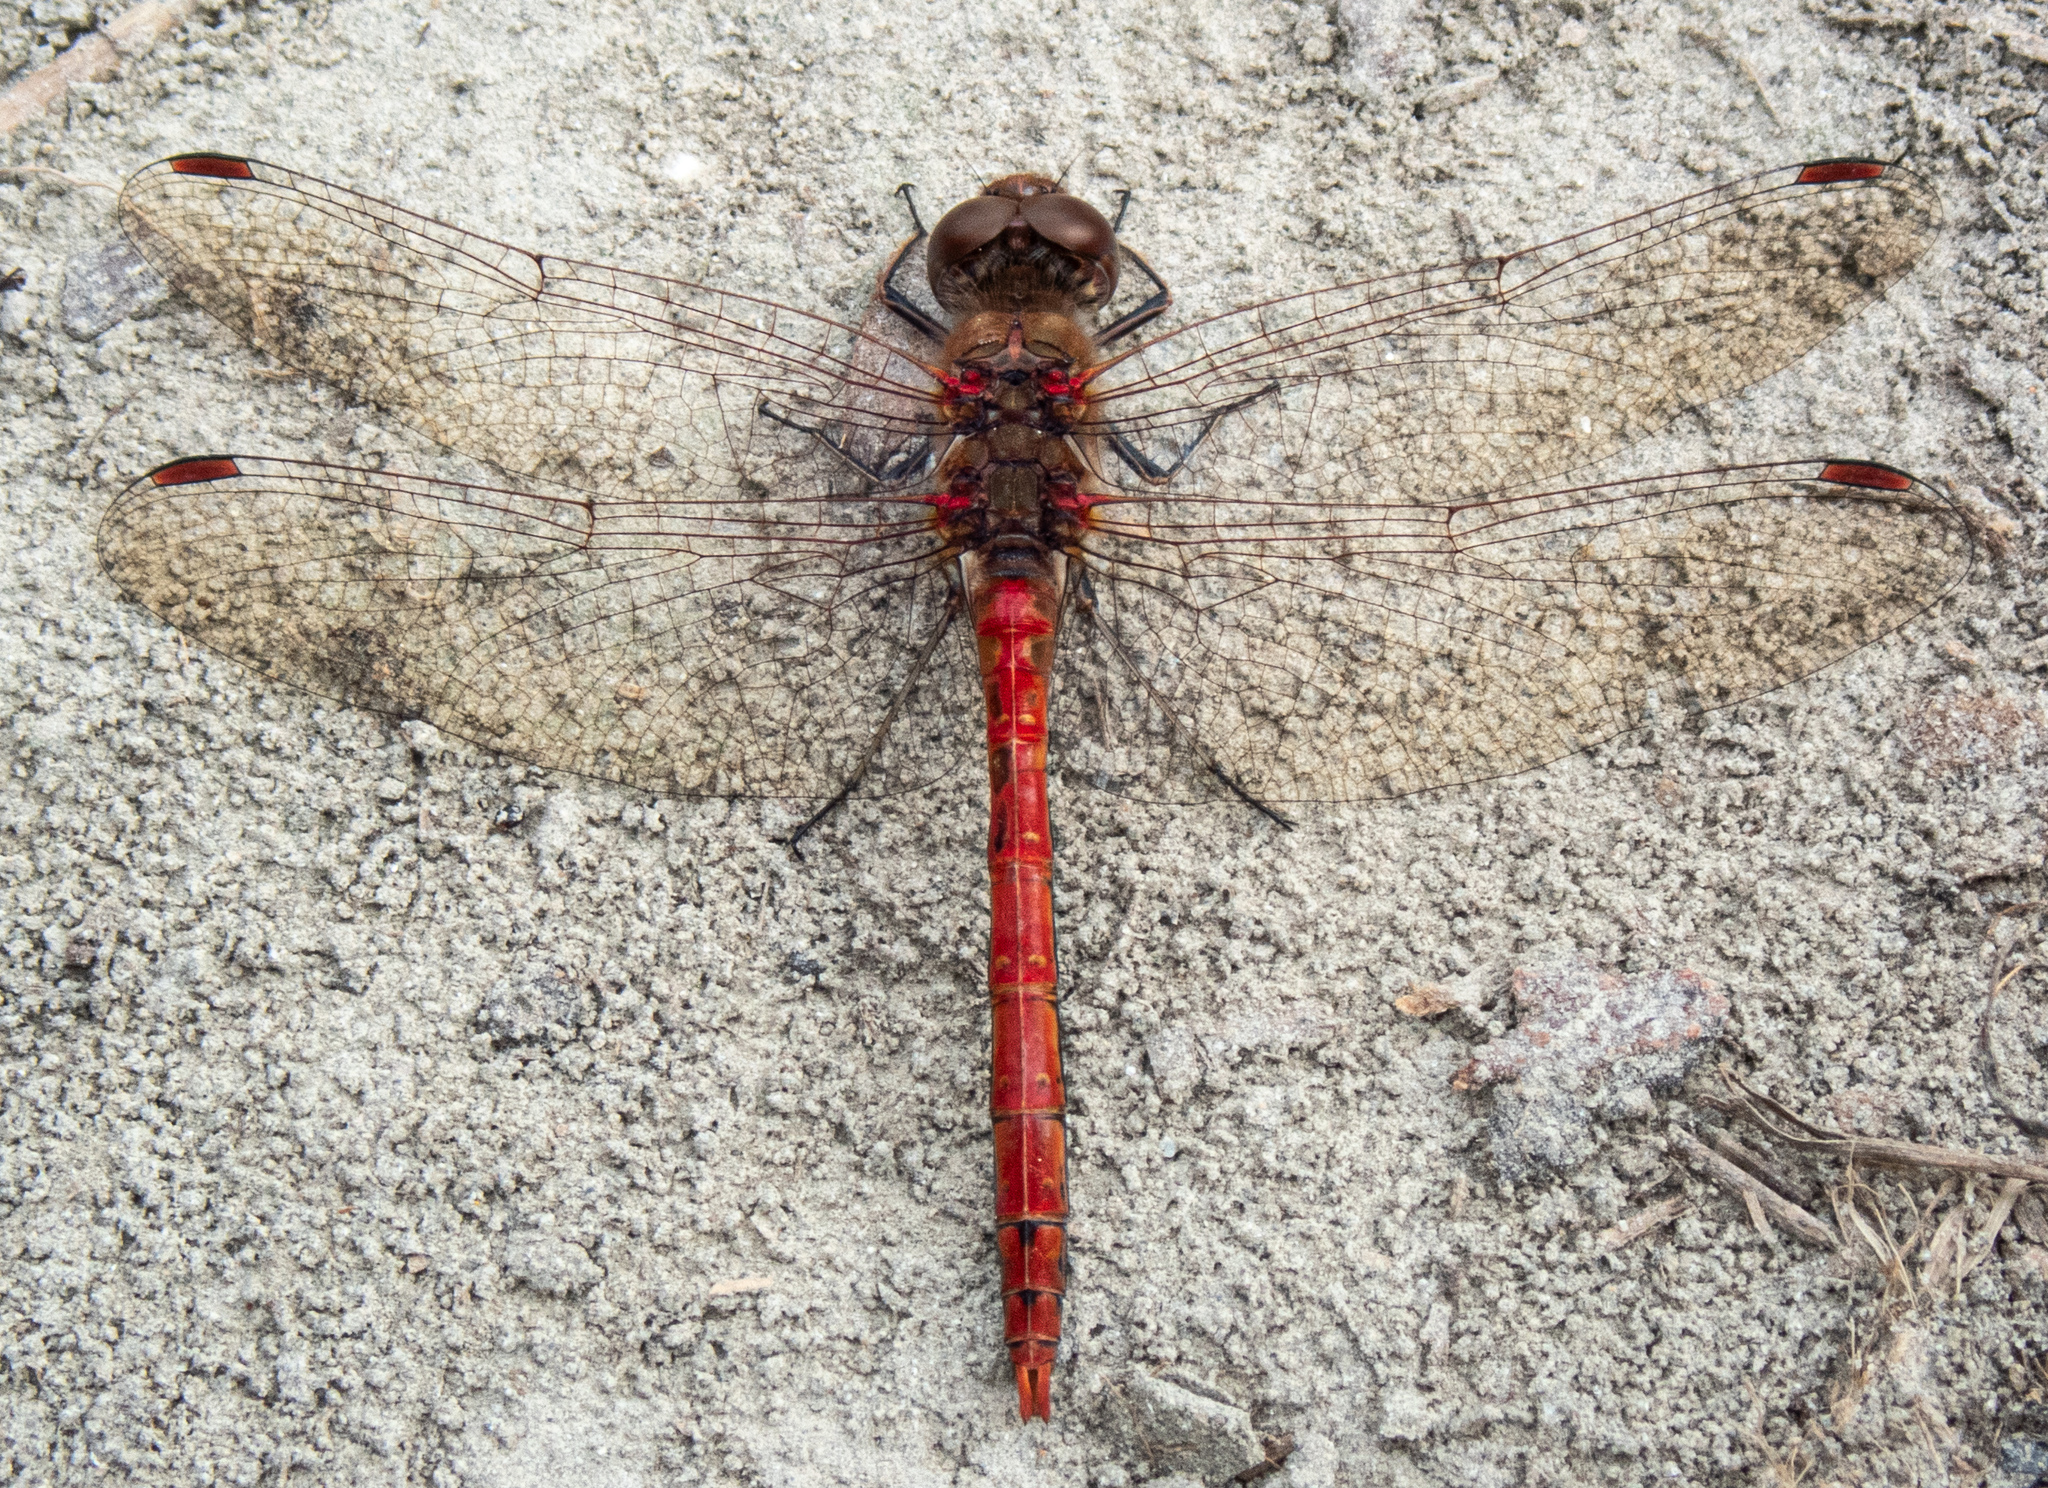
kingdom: Animalia
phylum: Arthropoda
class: Insecta
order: Odonata
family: Libellulidae
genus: Sympetrum
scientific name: Sympetrum striolatum
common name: Common darter
